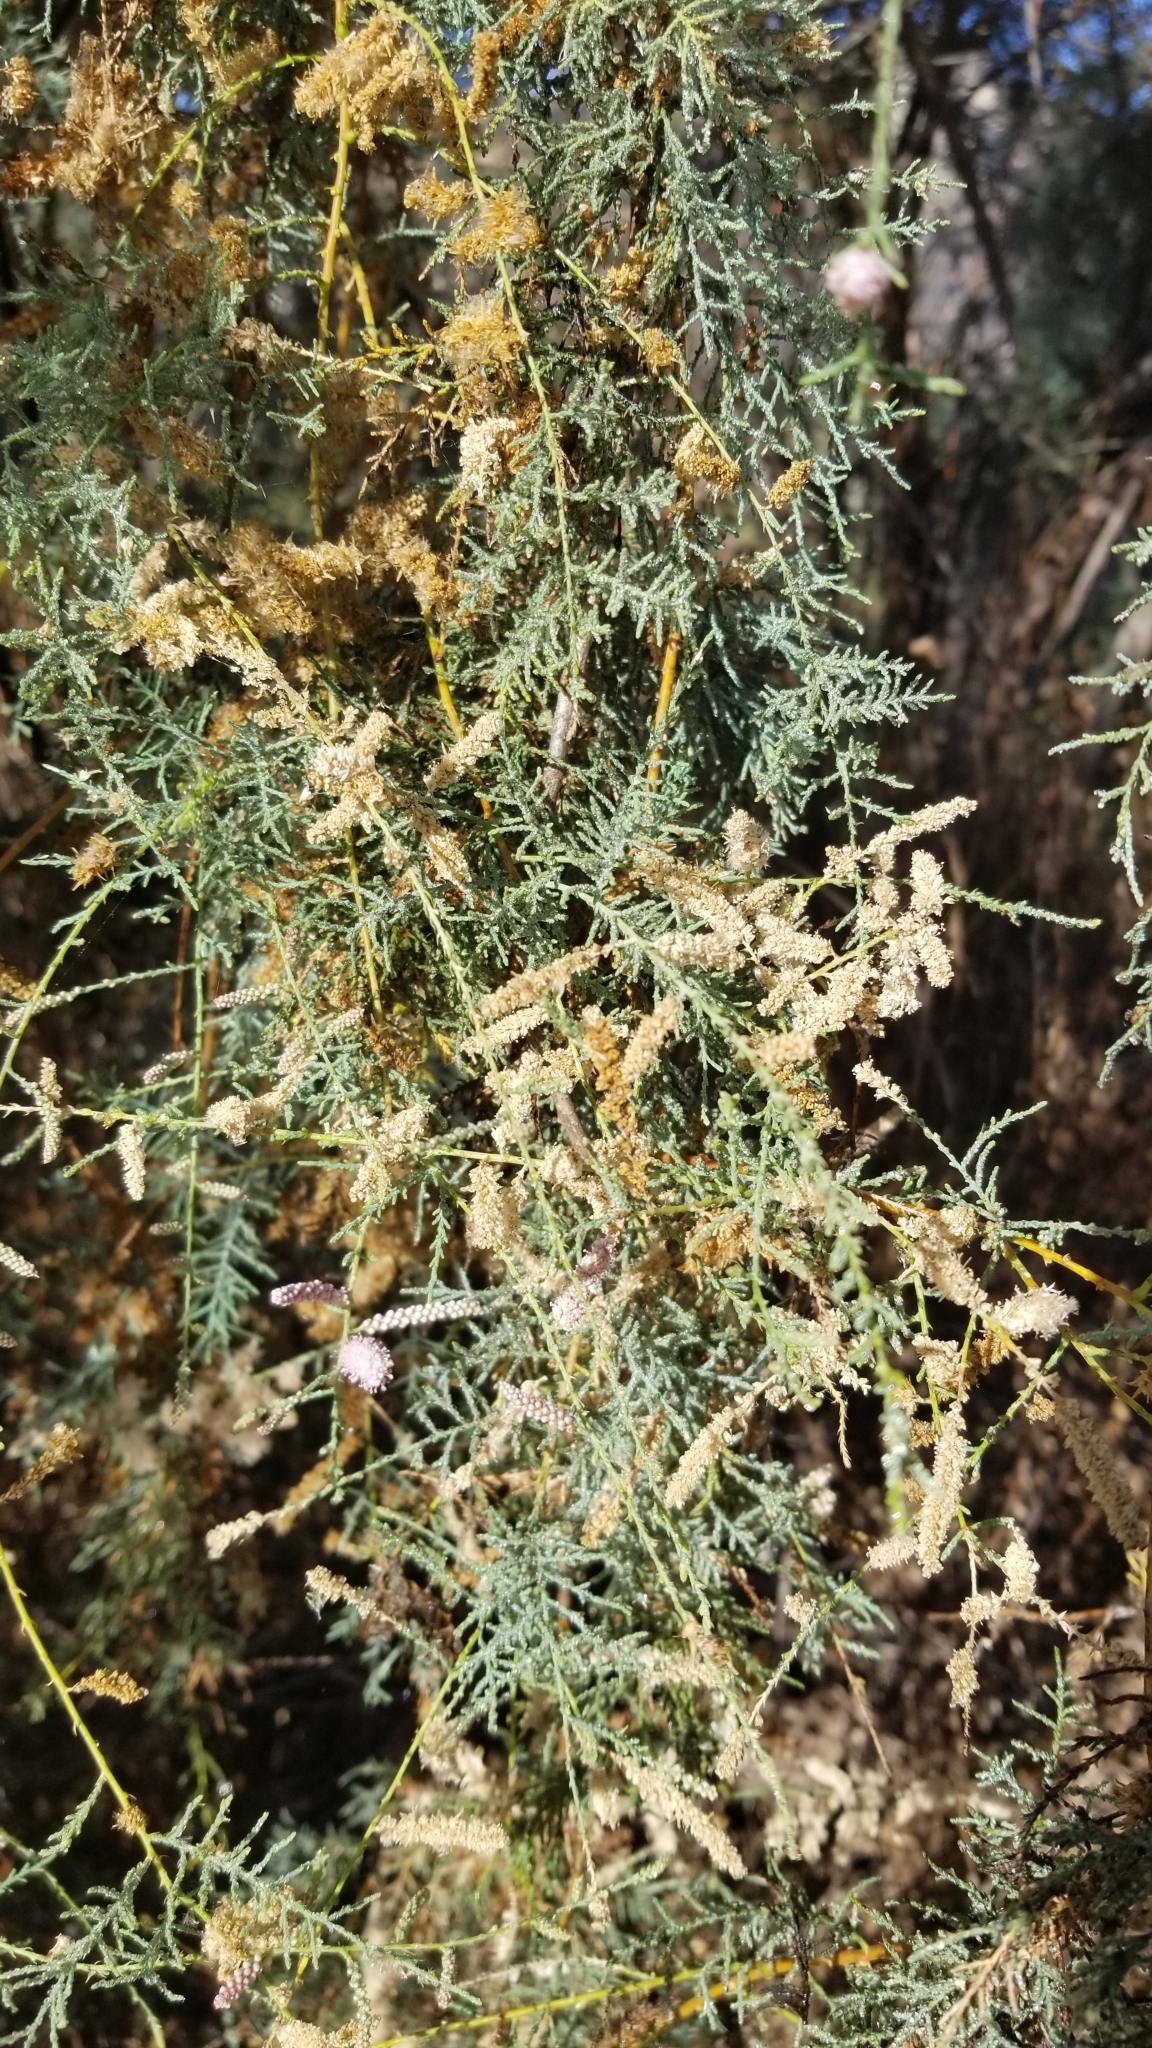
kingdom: Plantae
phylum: Tracheophyta
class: Magnoliopsida
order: Caryophyllales
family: Tamaricaceae
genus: Tamarix
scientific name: Tamarix ramosissima
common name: Pink tamarisk
